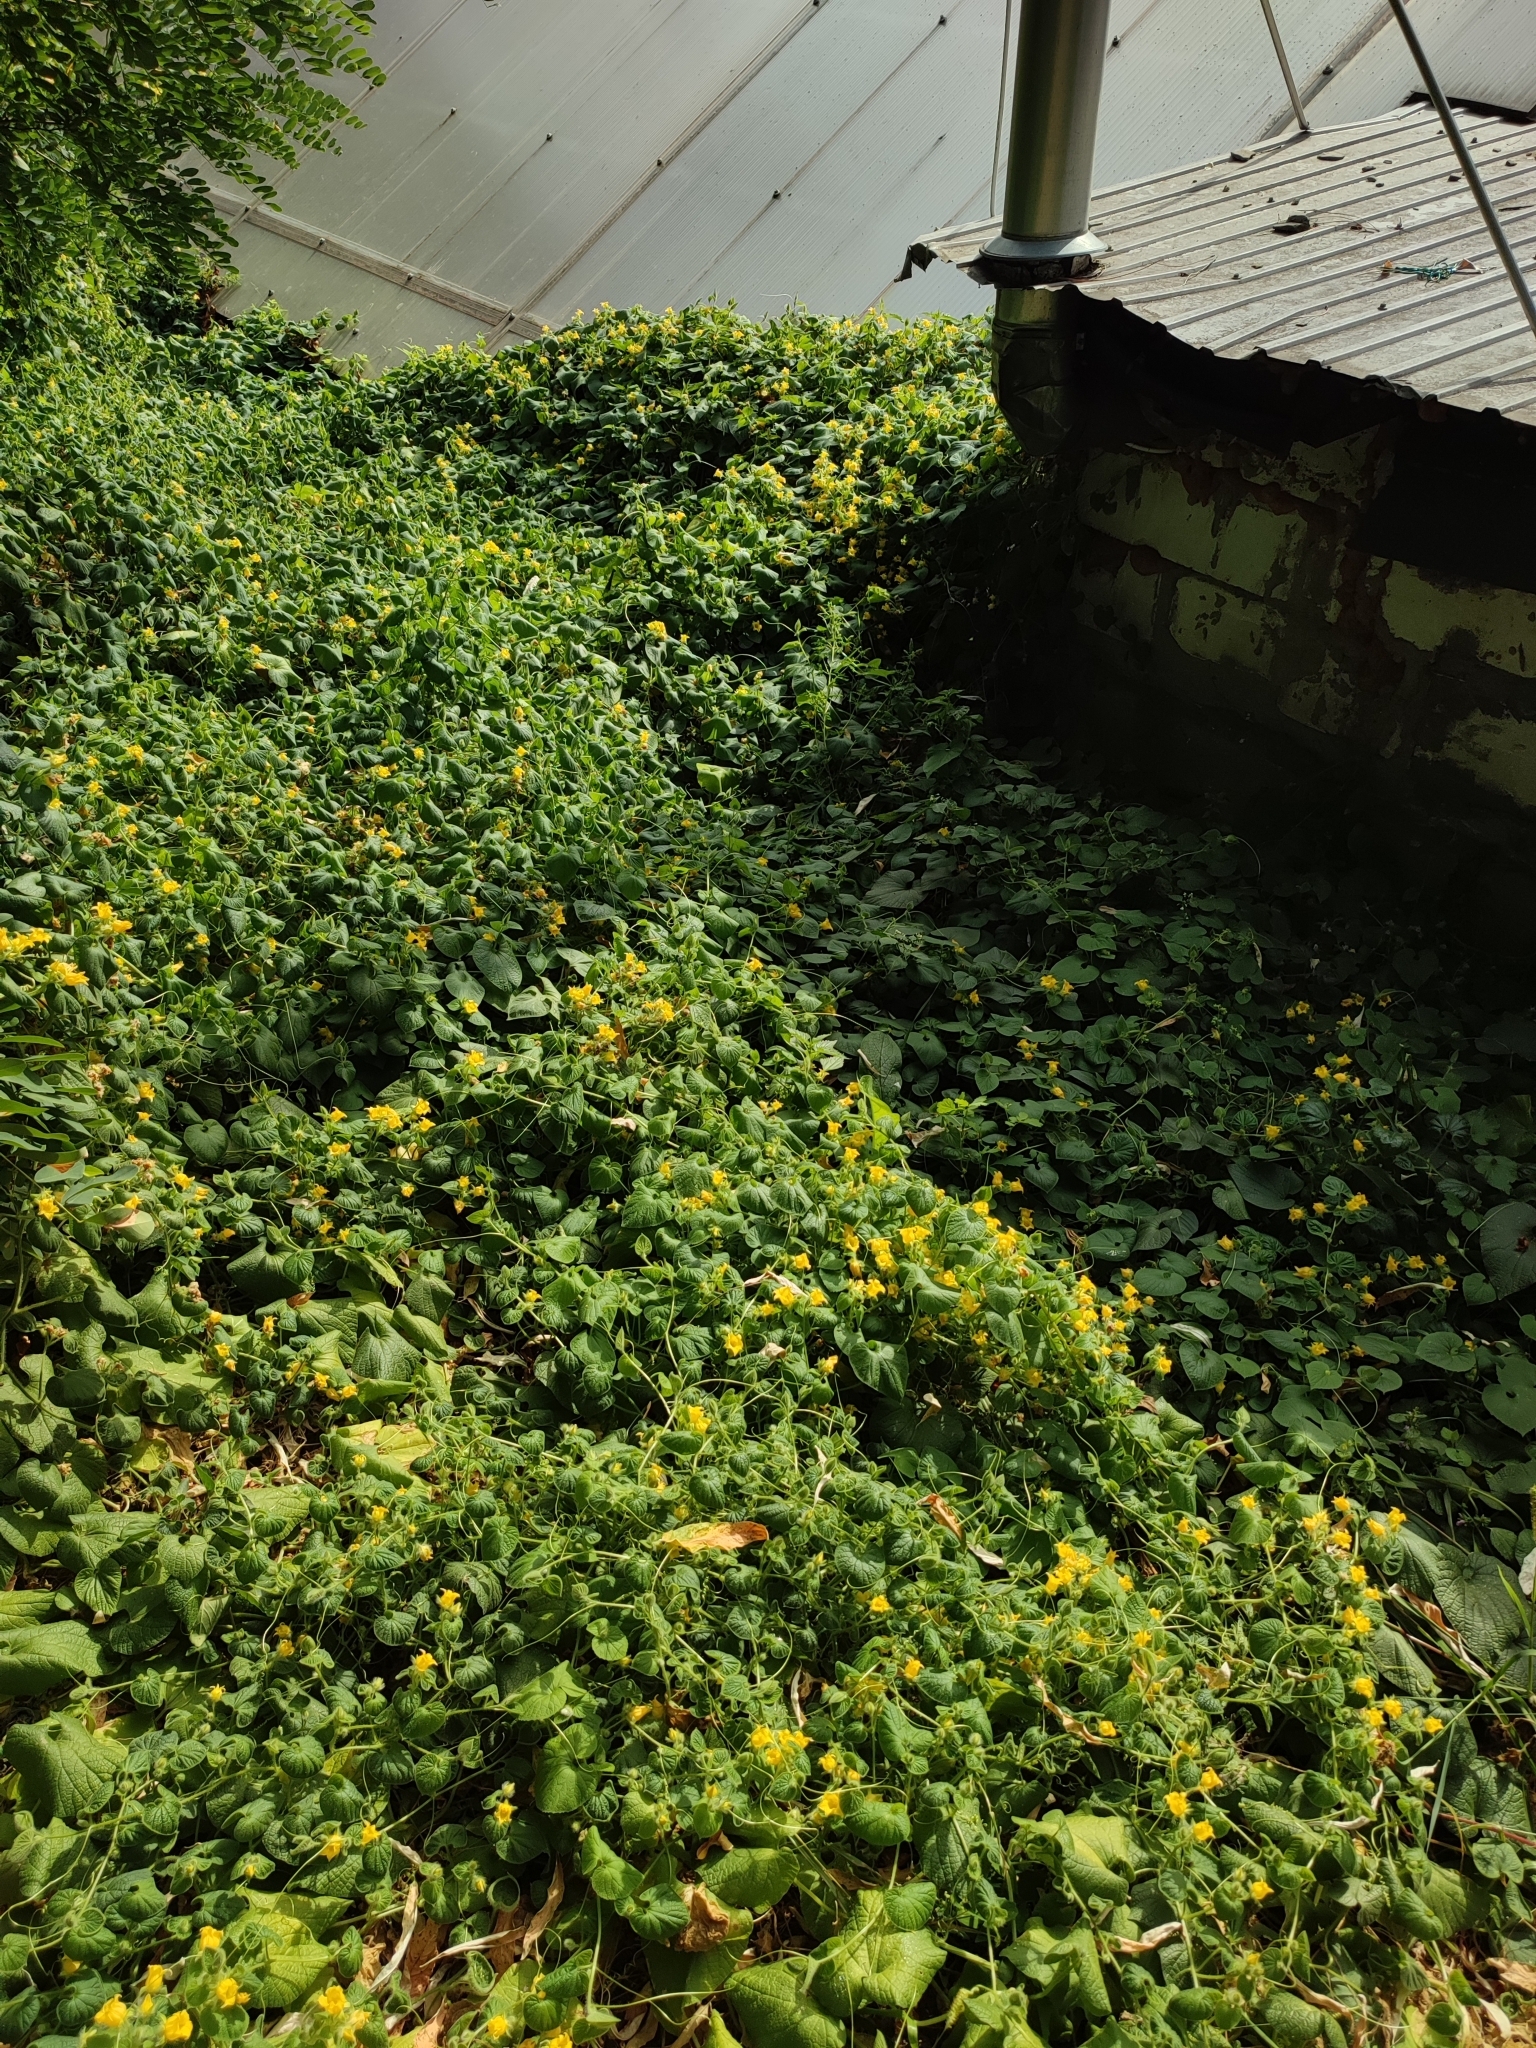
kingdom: Plantae
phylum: Tracheophyta
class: Magnoliopsida
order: Cucurbitales
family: Cucurbitaceae
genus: Thladiantha
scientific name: Thladiantha dubia
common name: Manchu tubergourd
